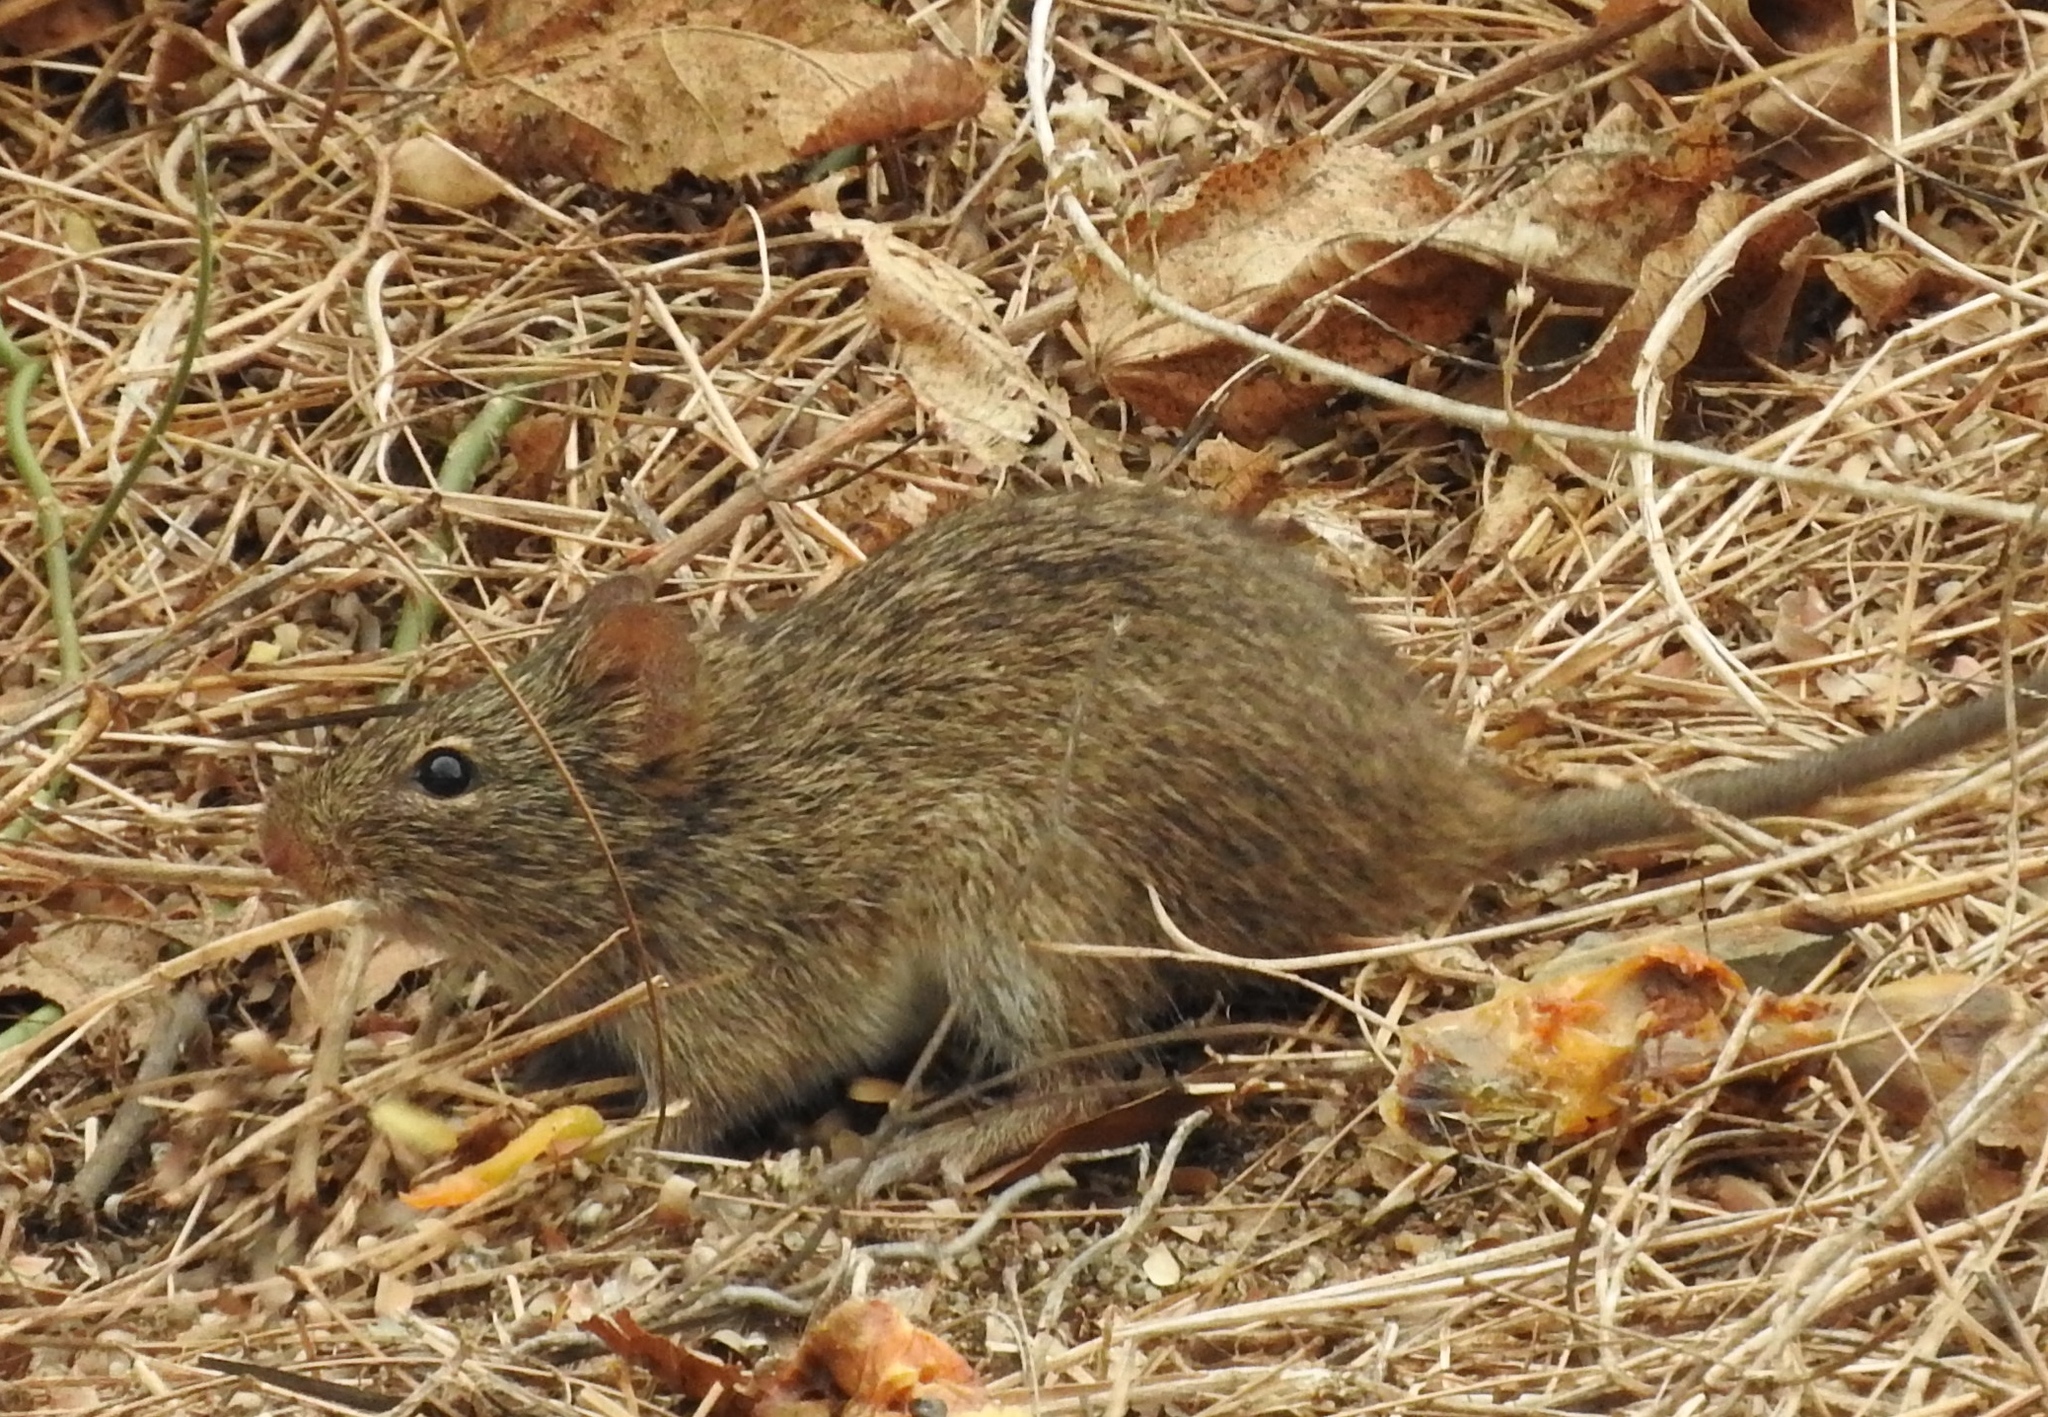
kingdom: Animalia
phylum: Chordata
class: Mammalia
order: Rodentia
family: Cricetidae
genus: Sigmodon
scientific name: Sigmodon arizonae
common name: Arizona cotton rat
